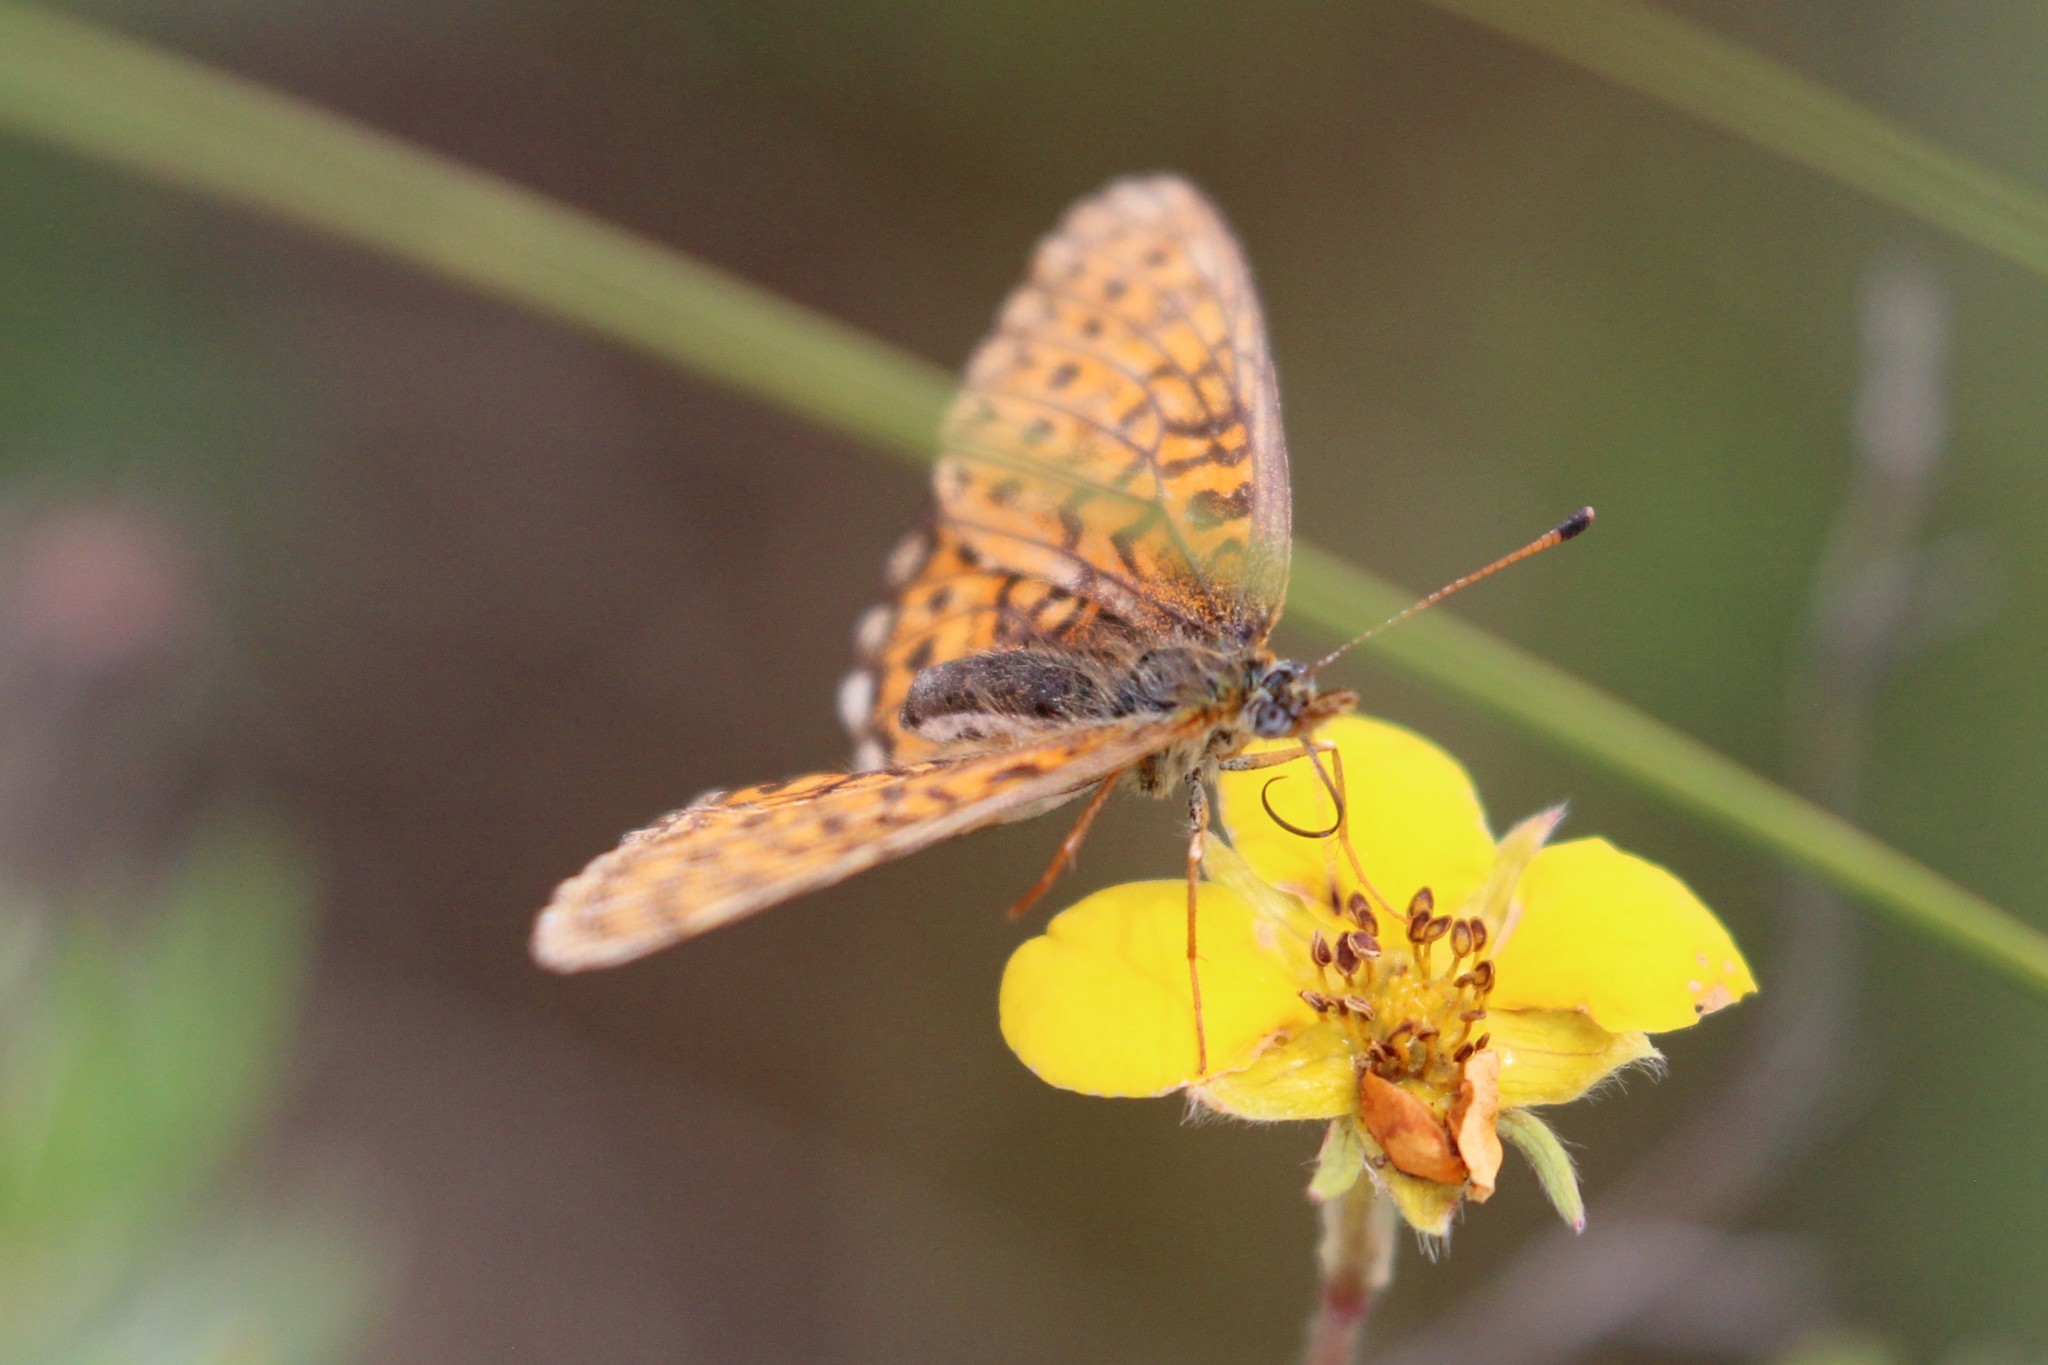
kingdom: Animalia
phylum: Arthropoda
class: Insecta
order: Lepidoptera
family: Nymphalidae
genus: Boloria
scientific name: Boloria eunomia
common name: Bog fritillary
